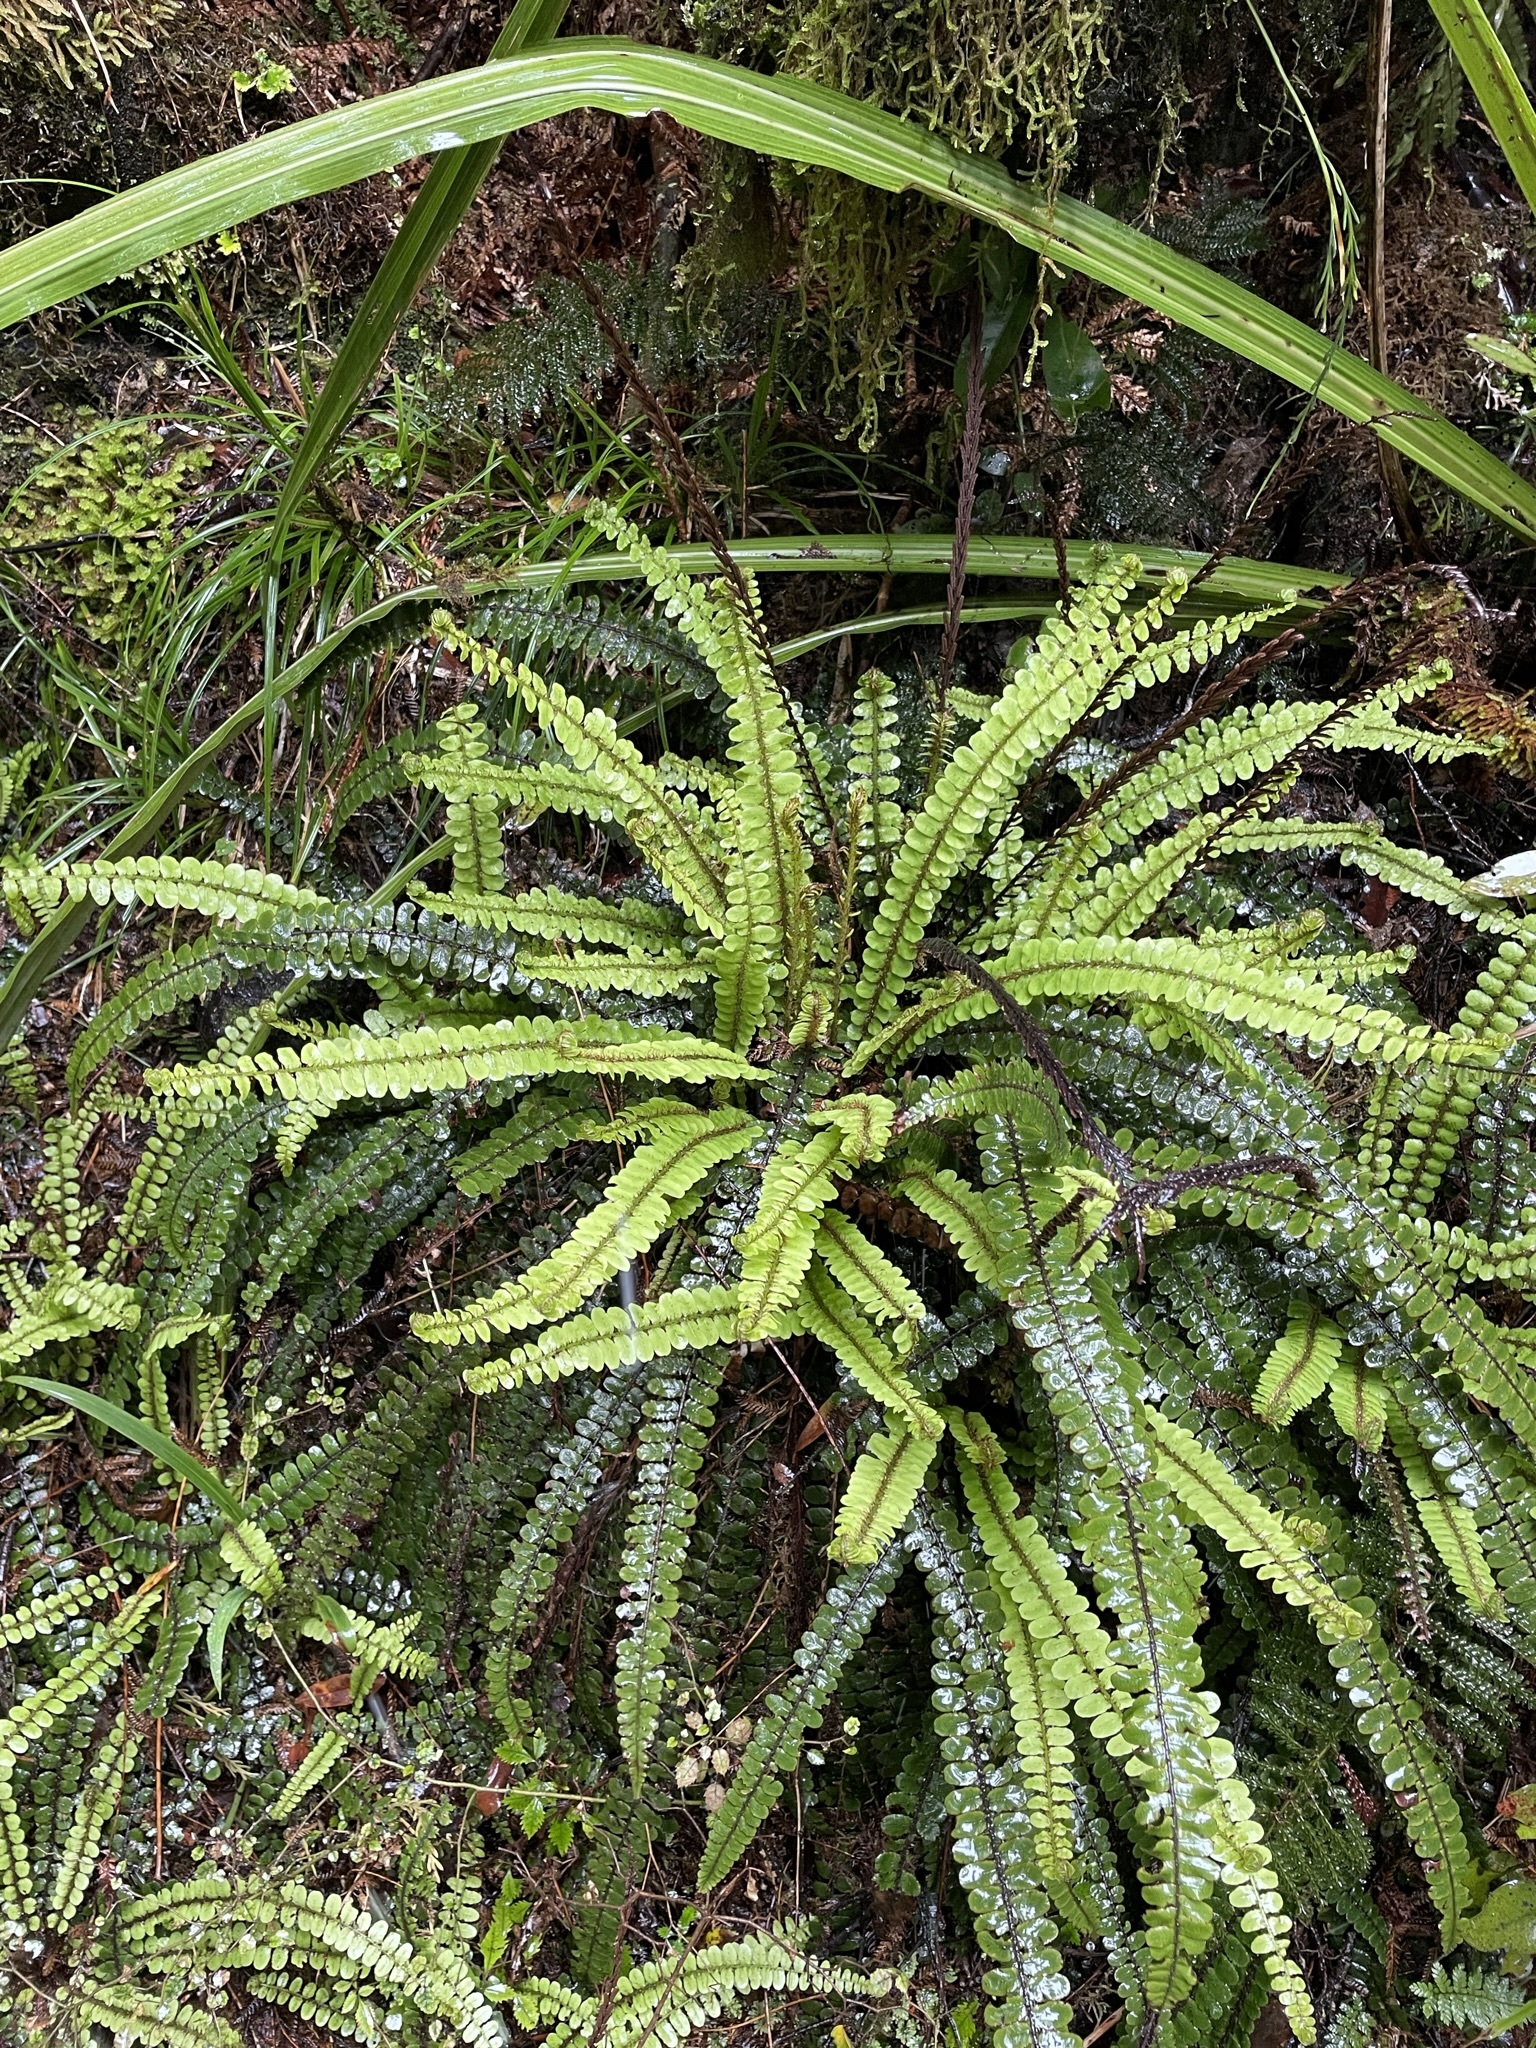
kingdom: Plantae
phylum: Tracheophyta
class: Polypodiopsida
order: Polypodiales
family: Blechnaceae
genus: Cranfillia
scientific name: Cranfillia fluviatilis
